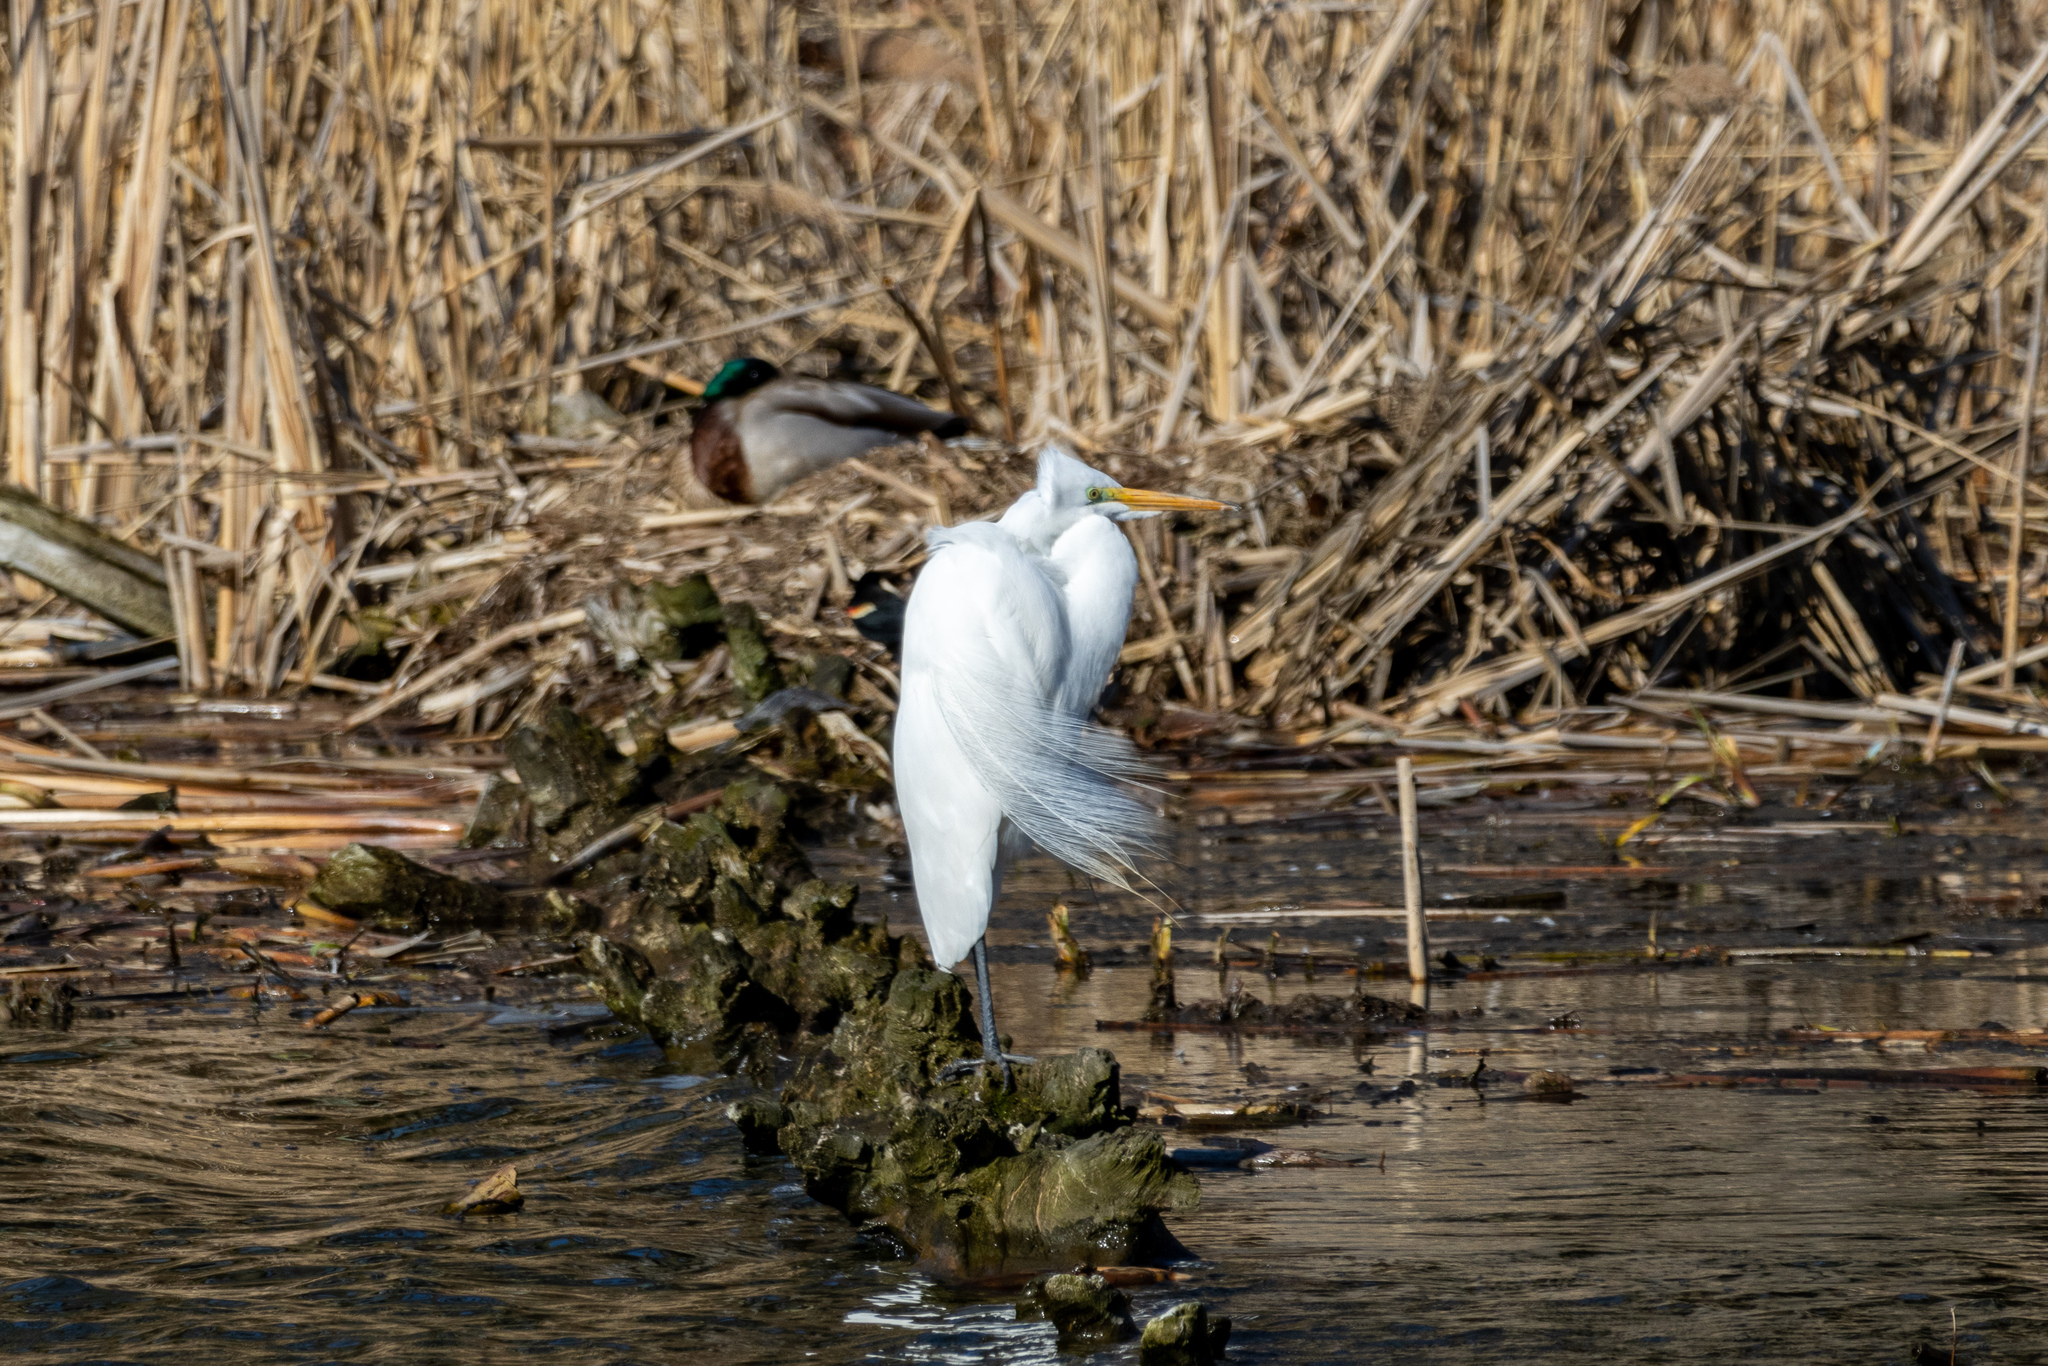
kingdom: Animalia
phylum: Chordata
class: Aves
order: Pelecaniformes
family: Ardeidae
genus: Ardea
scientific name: Ardea alba
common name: Great egret
